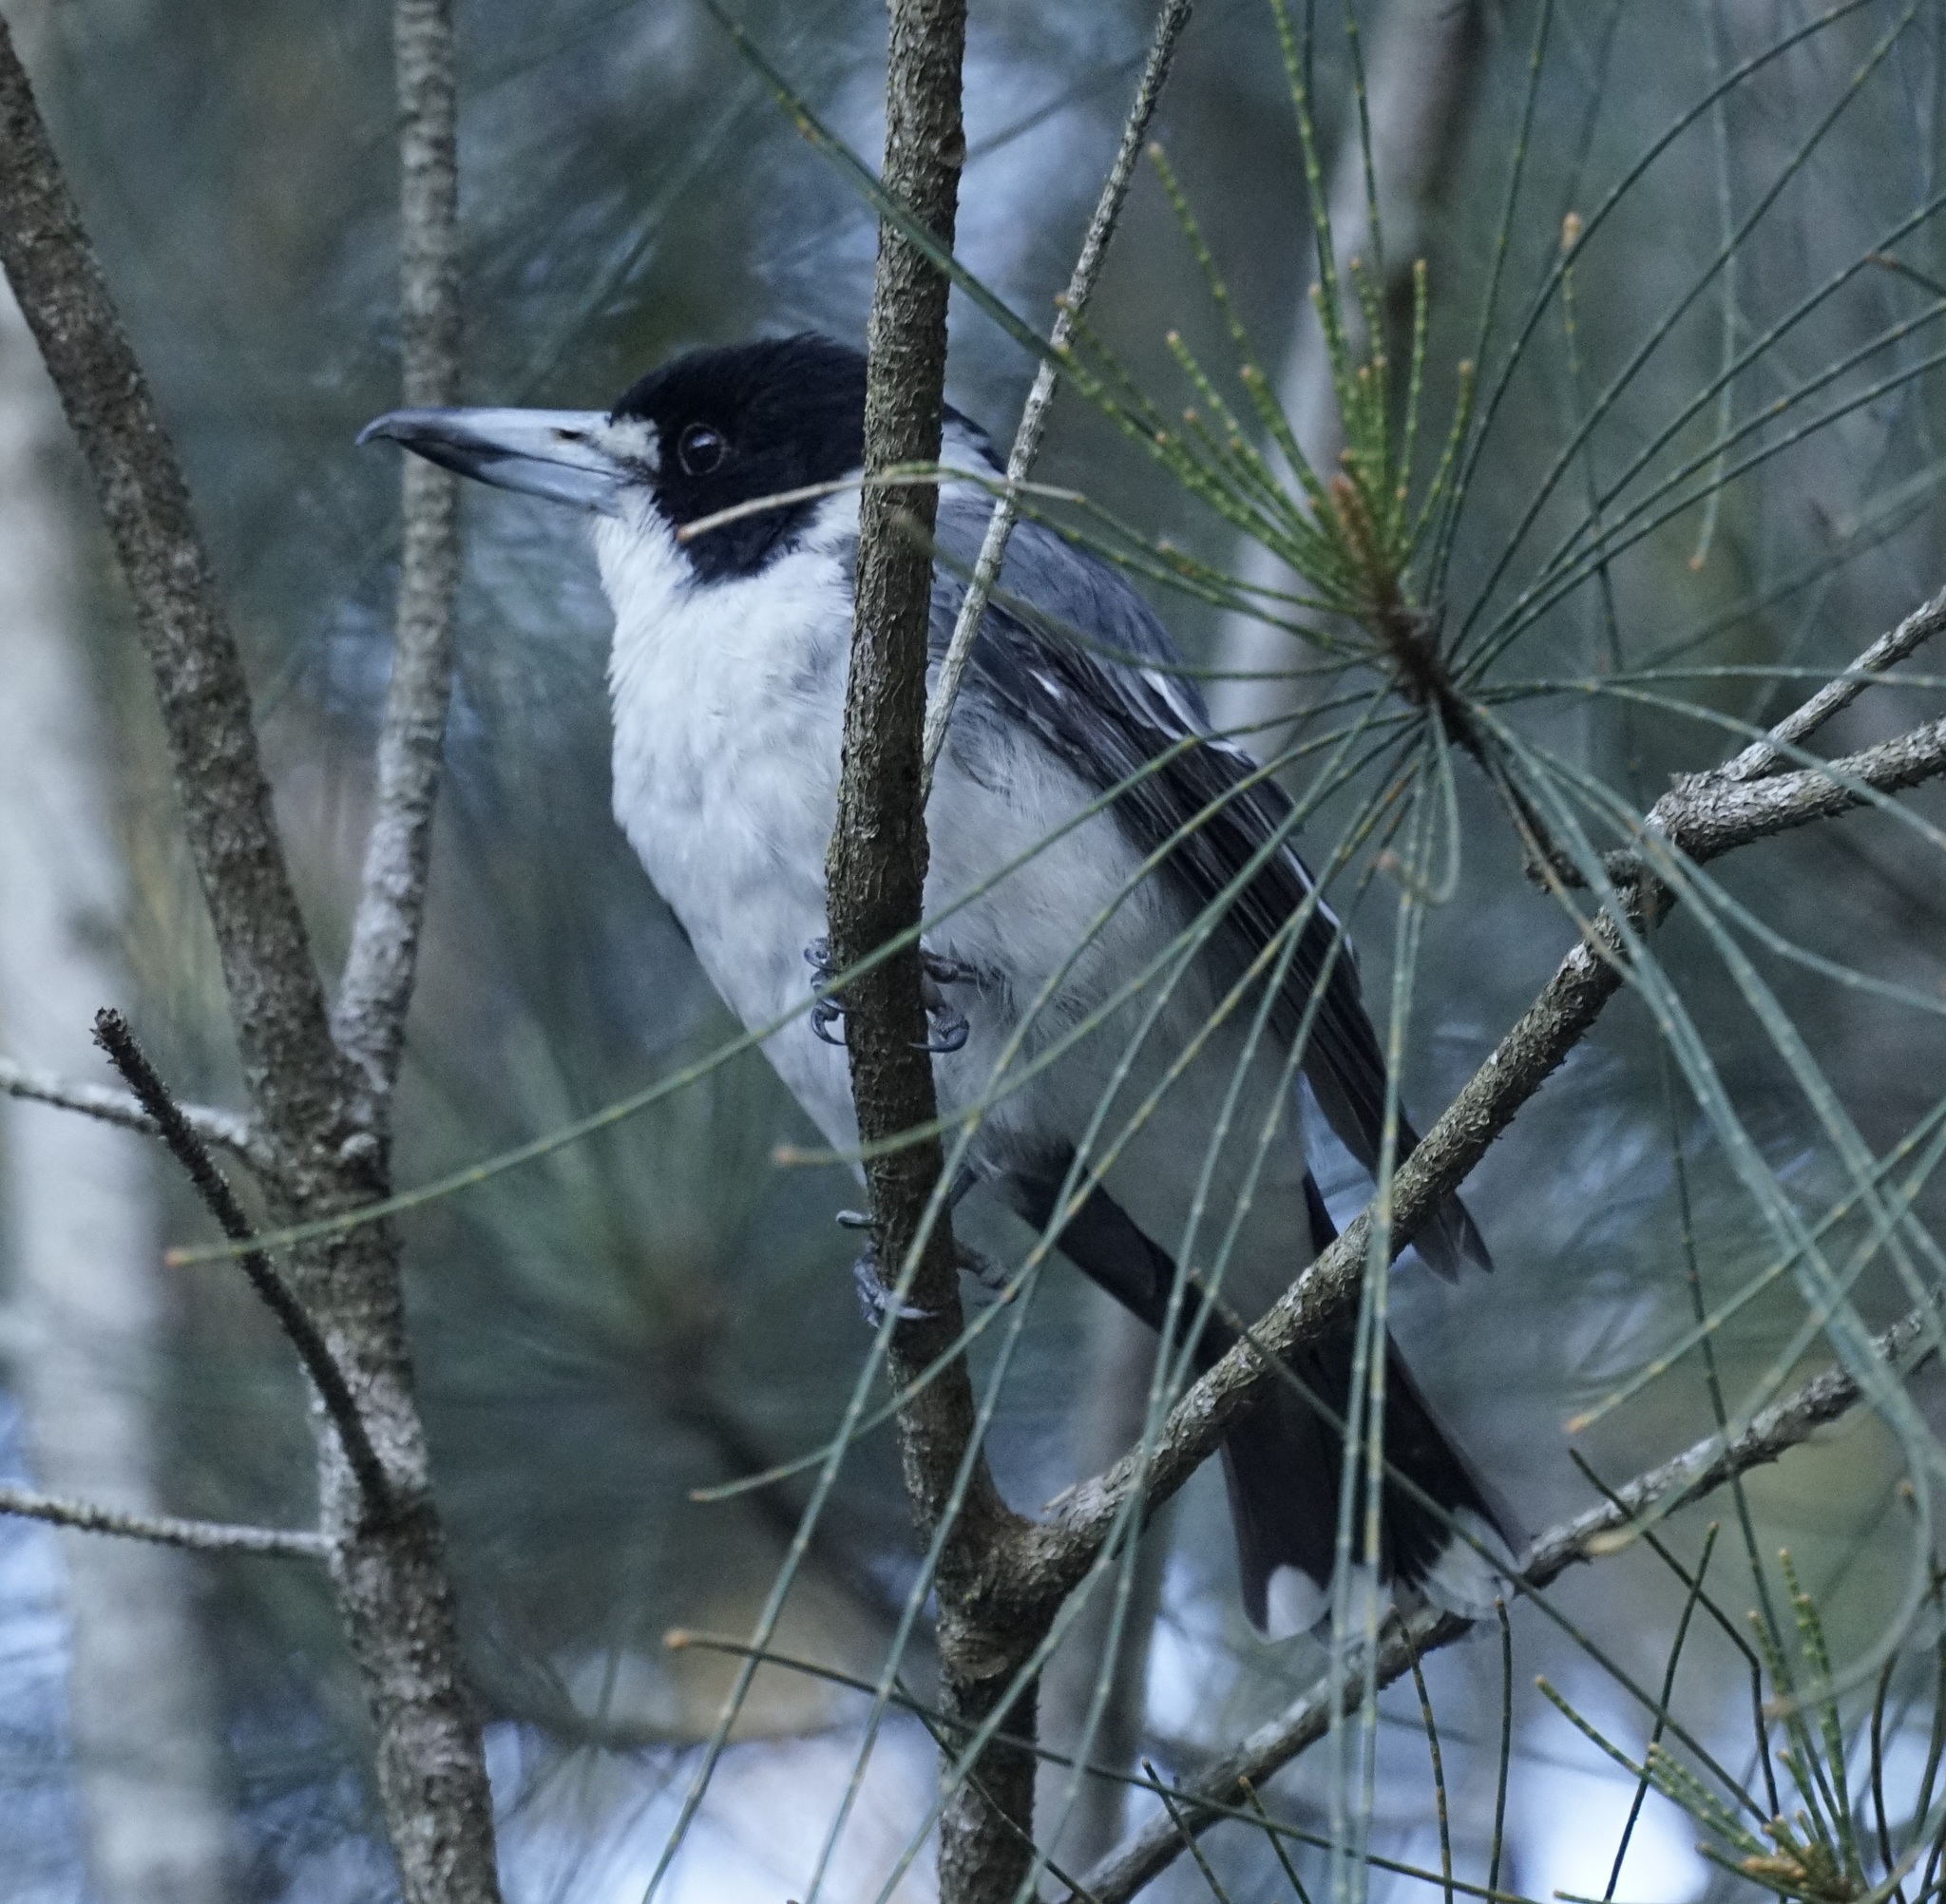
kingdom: Animalia
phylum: Chordata
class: Aves
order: Passeriformes
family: Cracticidae
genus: Cracticus
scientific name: Cracticus torquatus
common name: Grey butcherbird
